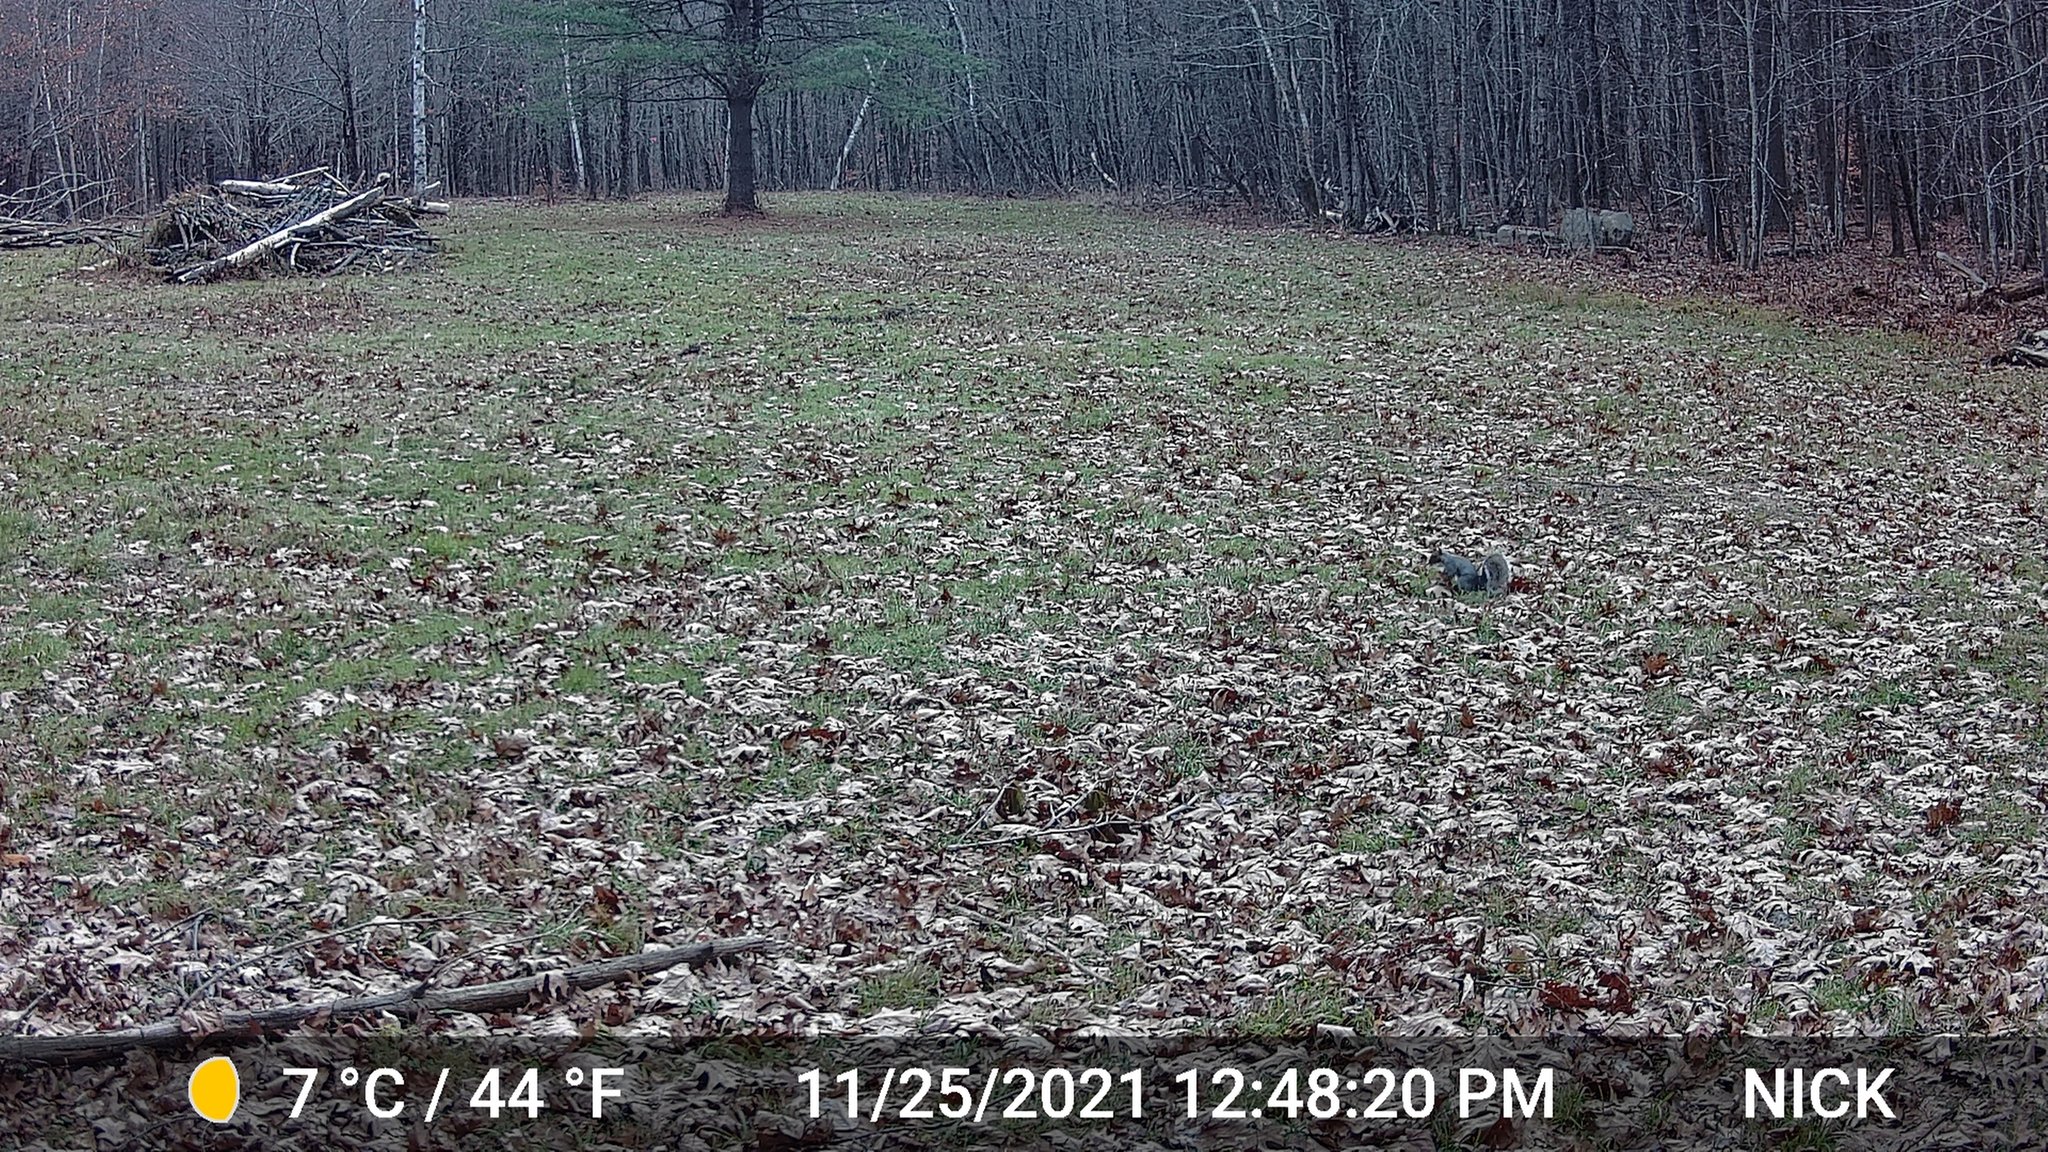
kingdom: Animalia
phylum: Chordata
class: Mammalia
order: Rodentia
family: Sciuridae
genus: Sciurus
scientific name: Sciurus carolinensis
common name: Eastern gray squirrel
